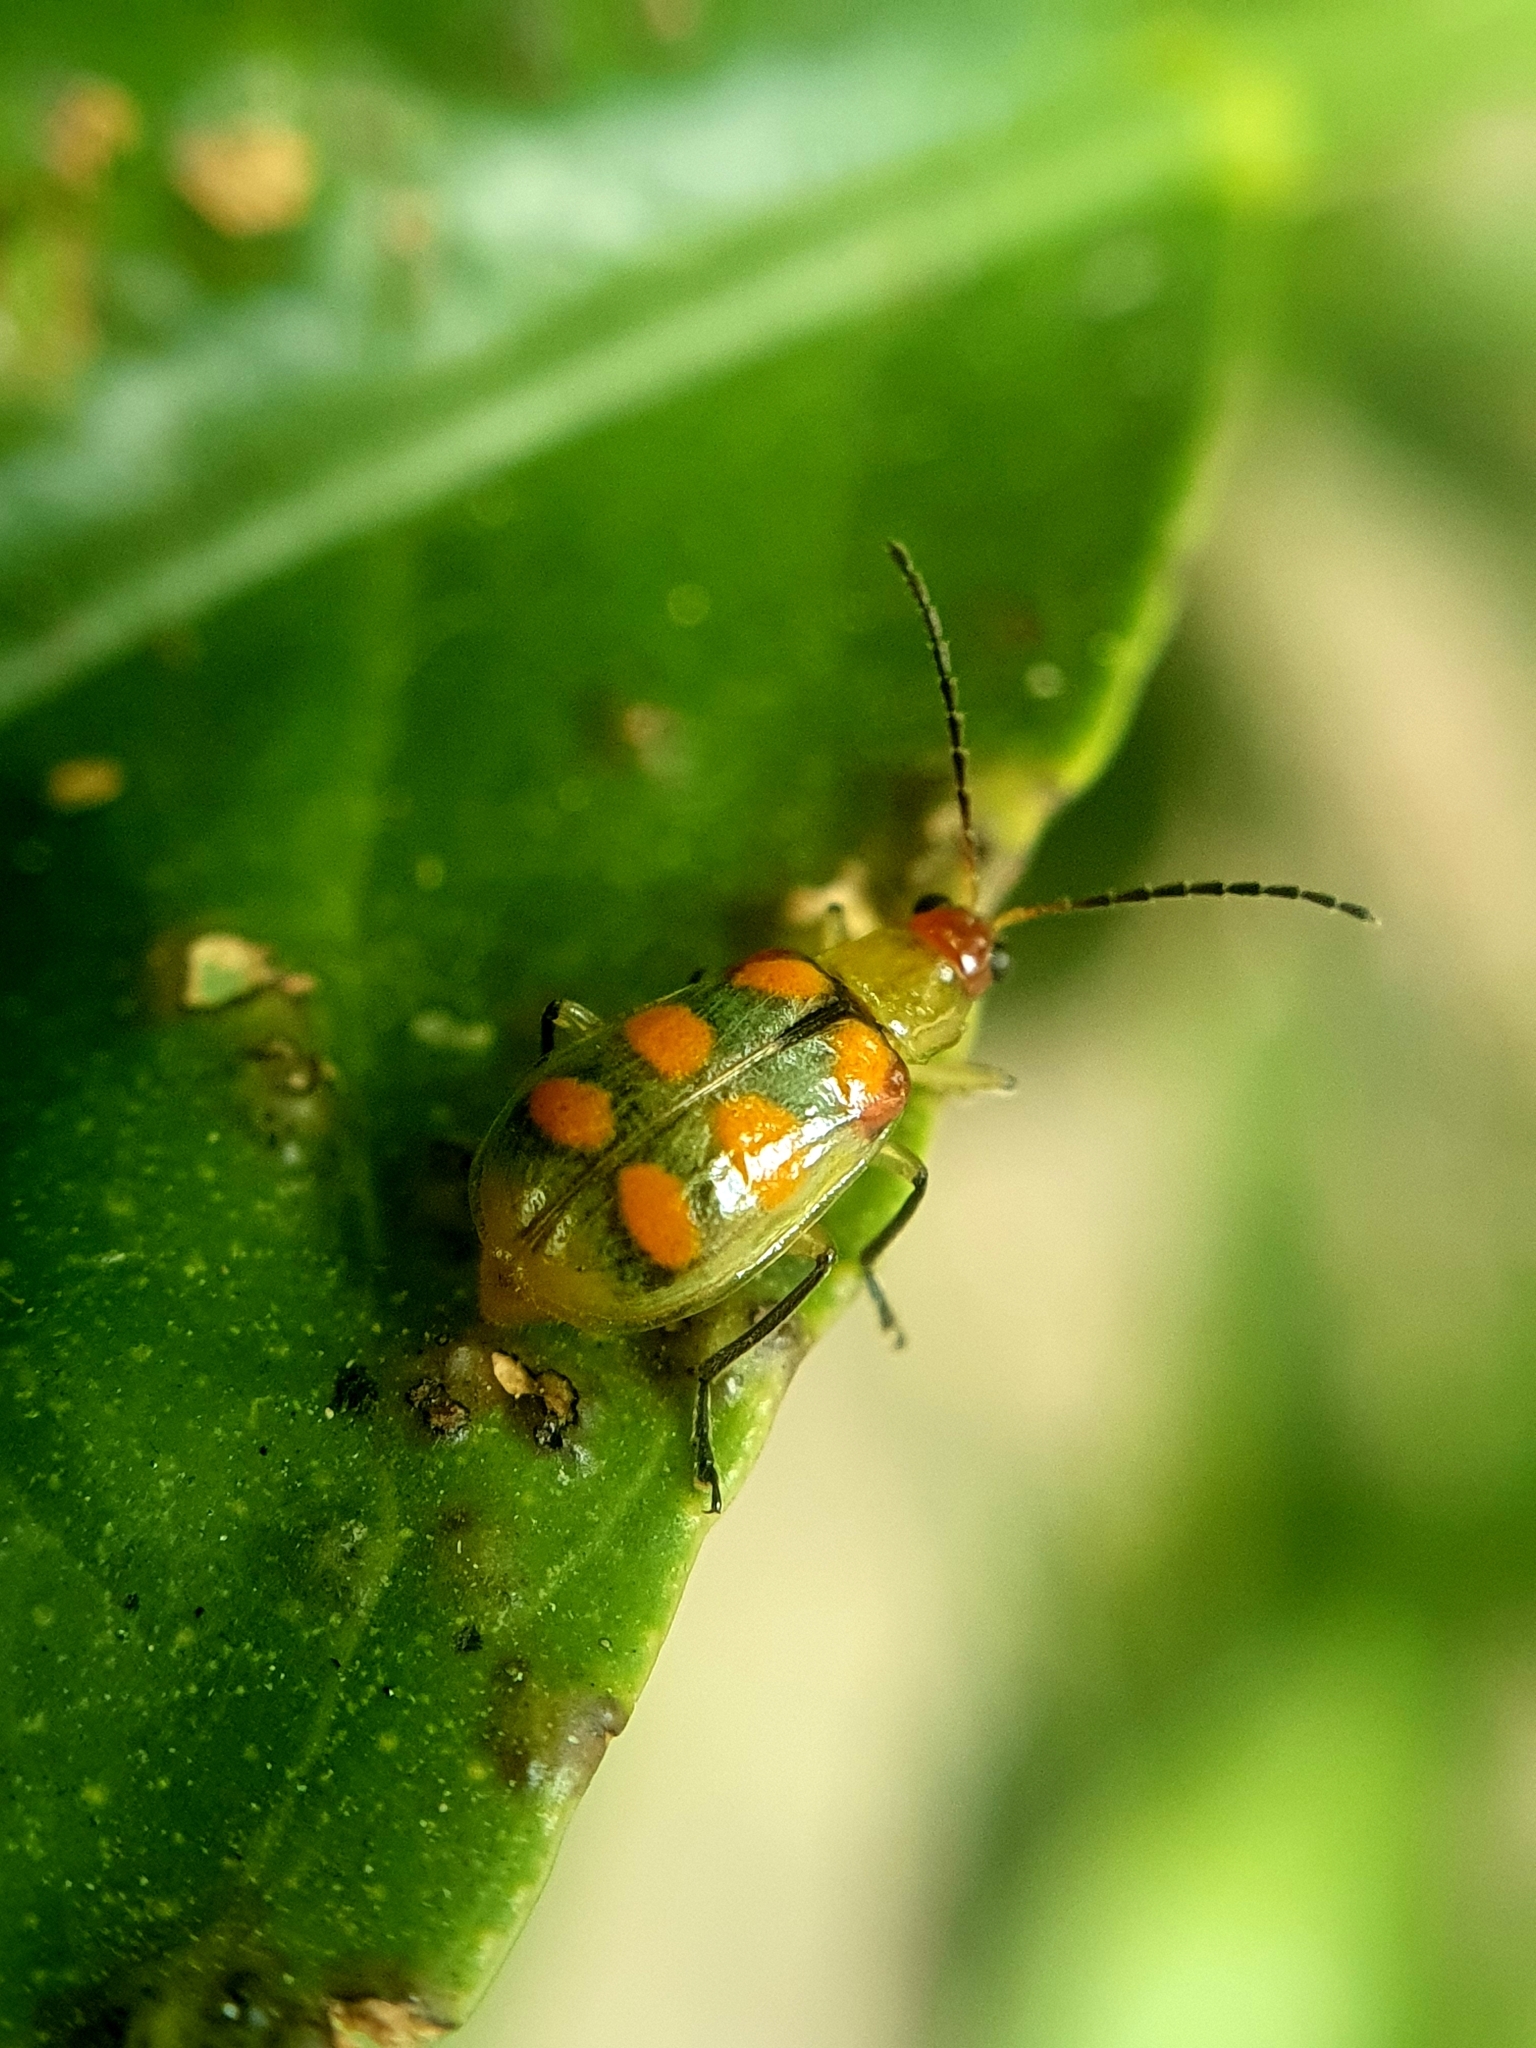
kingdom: Animalia
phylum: Arthropoda
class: Insecta
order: Coleoptera
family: Chrysomelidae
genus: Diabrotica
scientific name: Diabrotica speciosa
